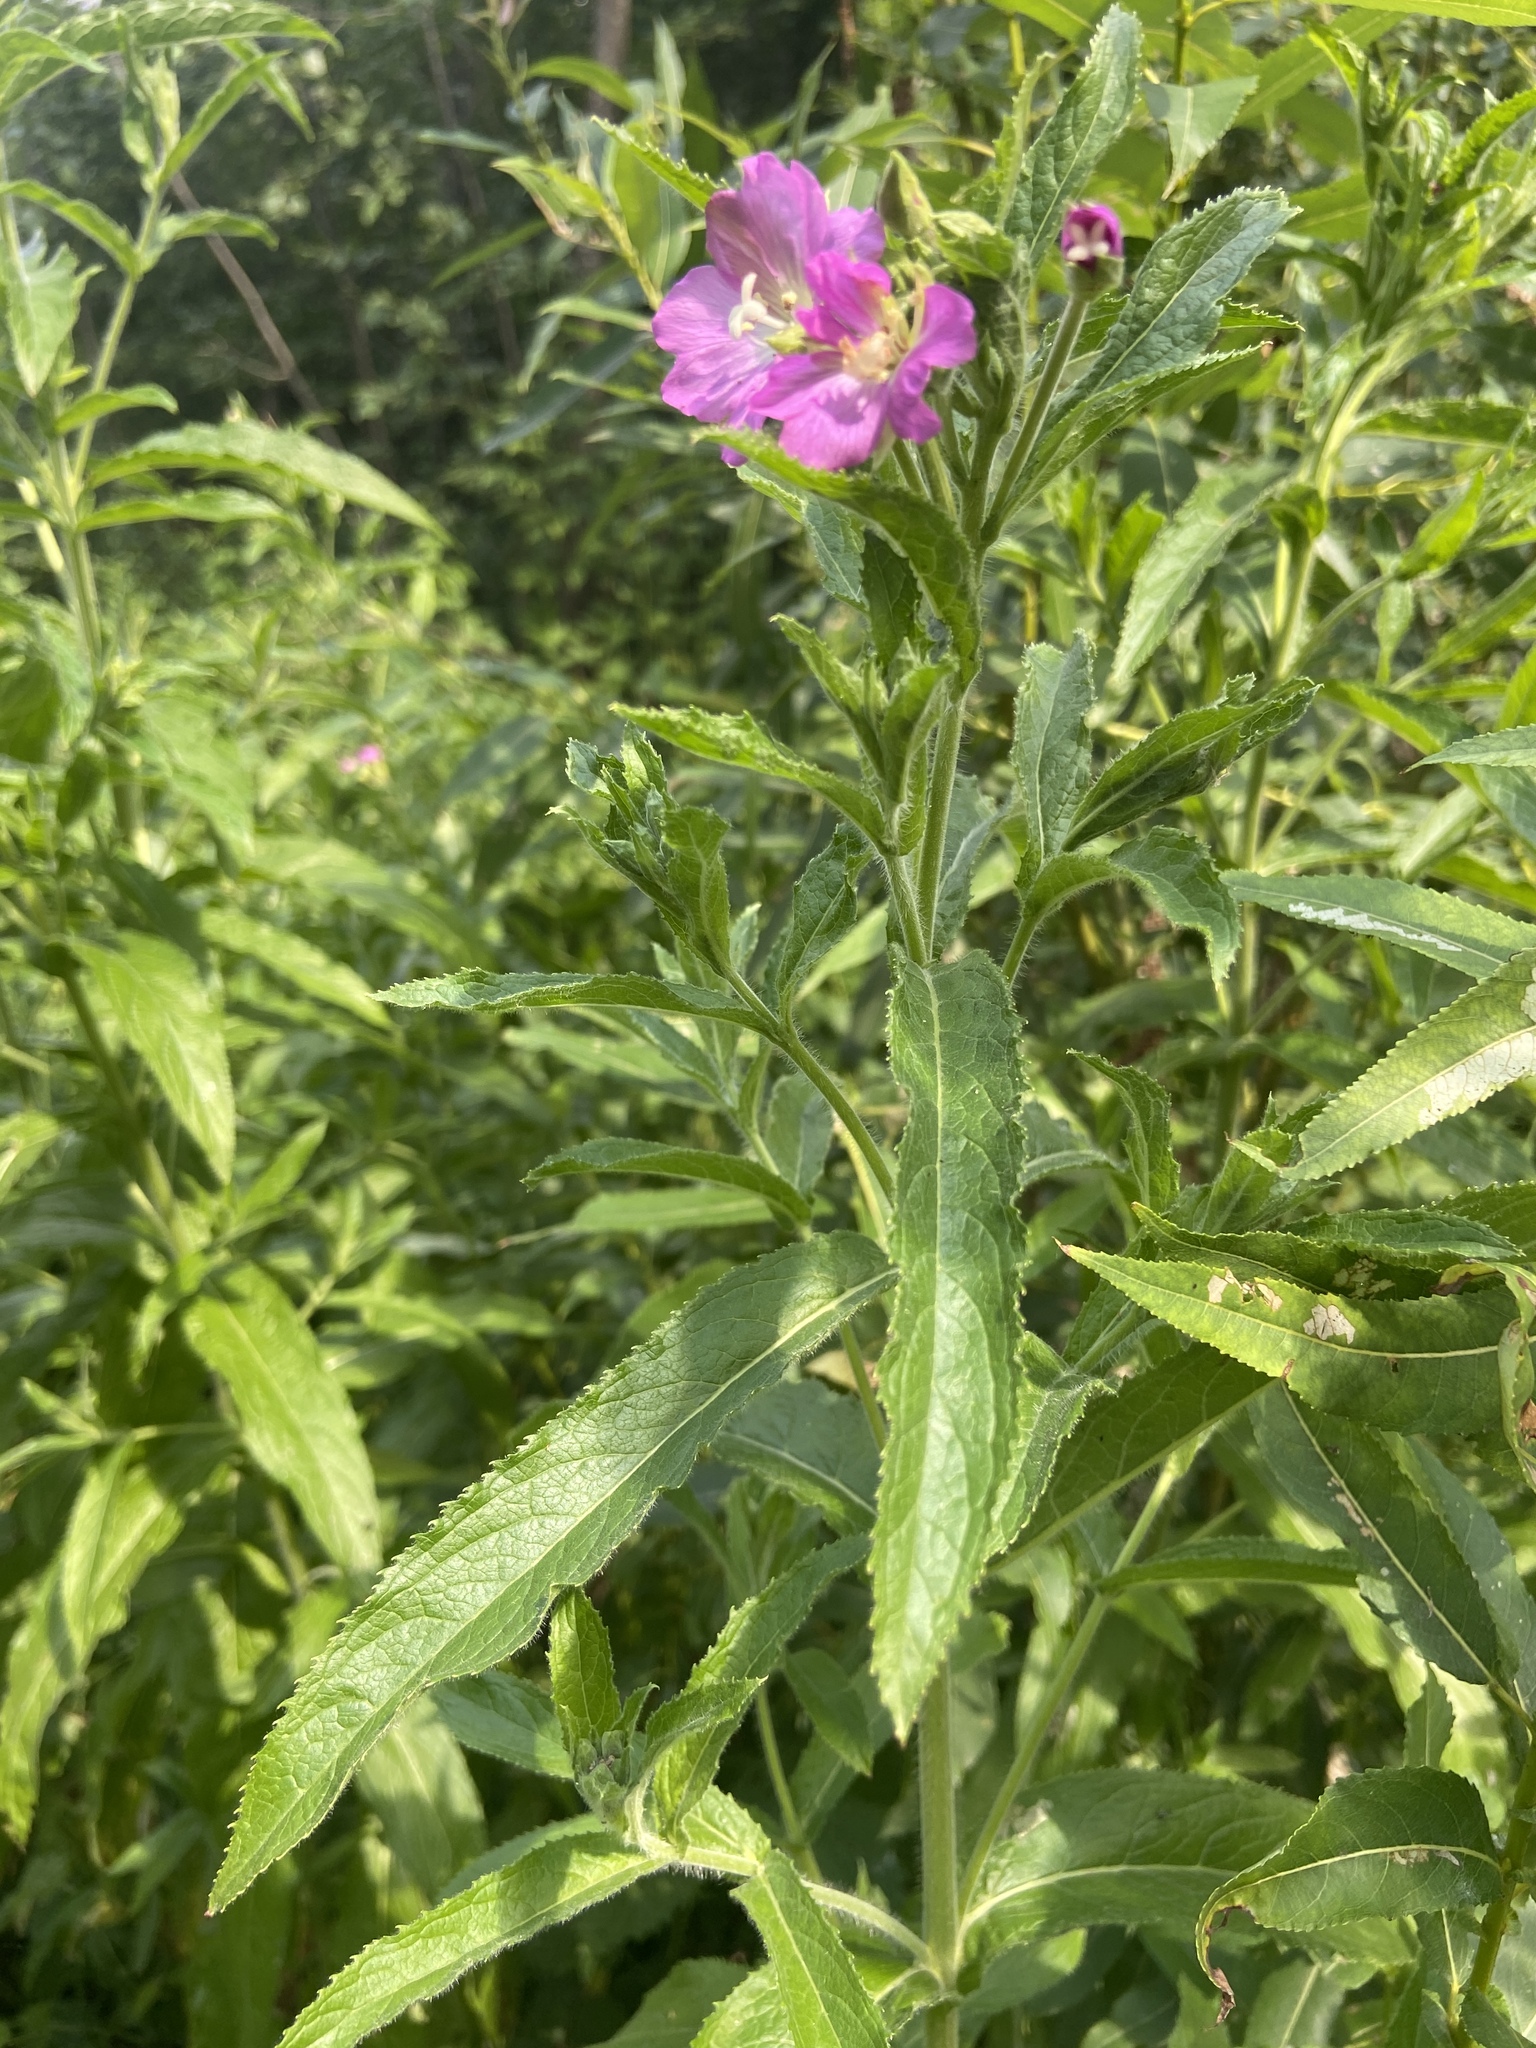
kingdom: Plantae
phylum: Tracheophyta
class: Magnoliopsida
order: Myrtales
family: Onagraceae
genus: Epilobium
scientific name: Epilobium hirsutum
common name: Great willowherb
